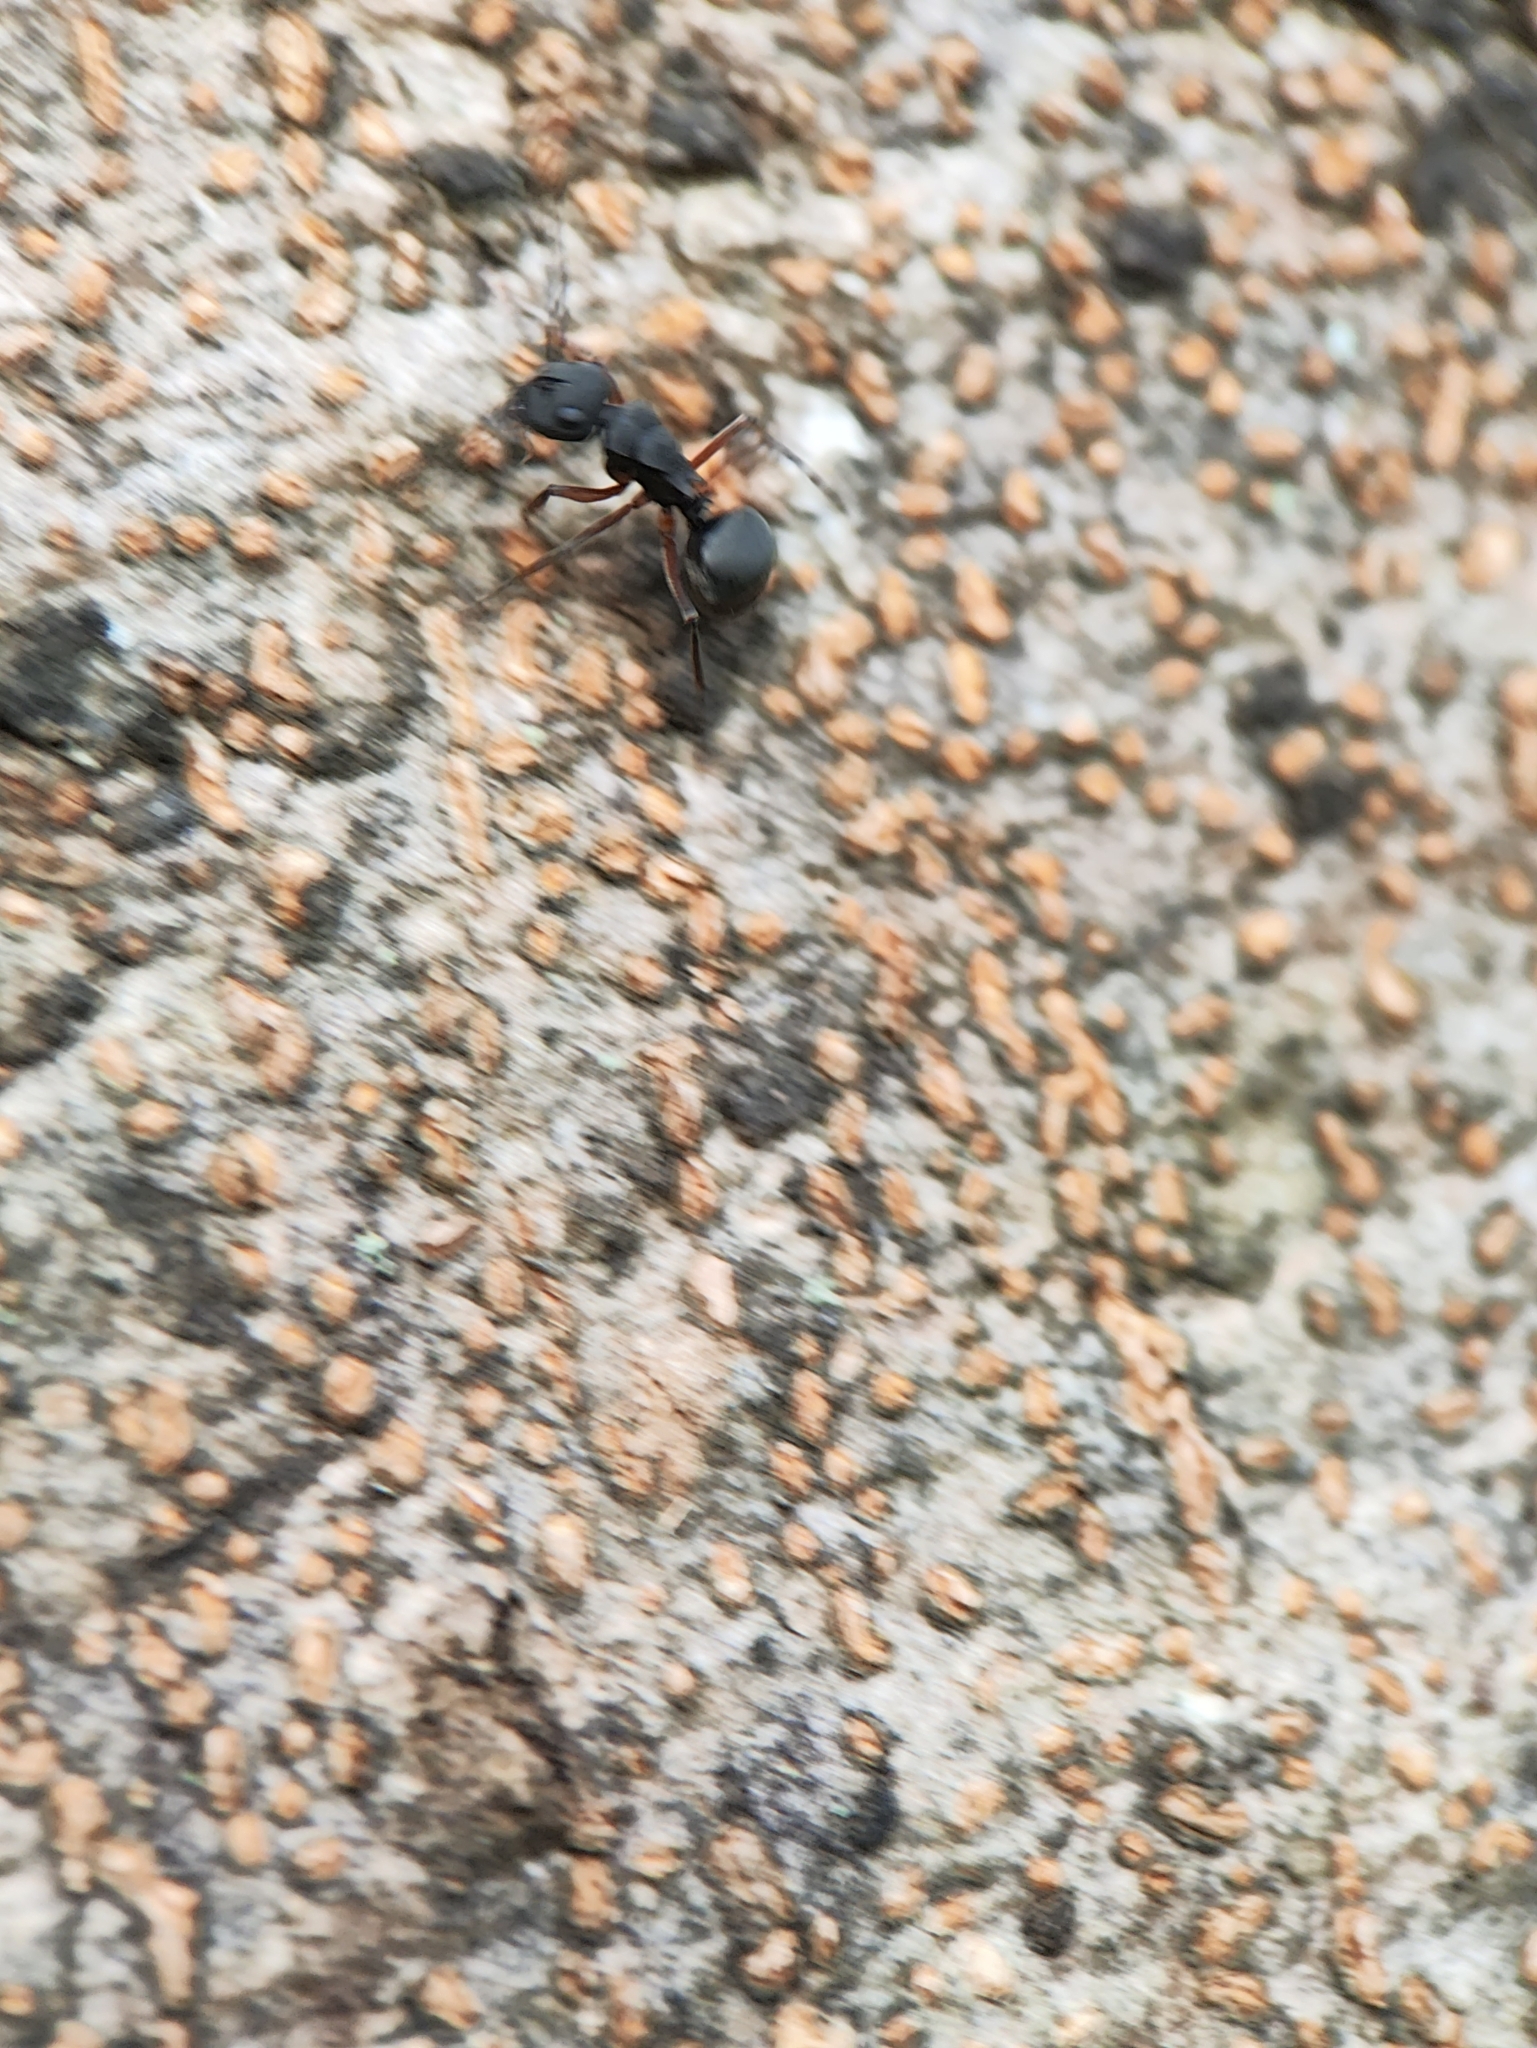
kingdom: Animalia
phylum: Arthropoda
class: Insecta
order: Hymenoptera
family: Formicidae
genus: Polyrhachis
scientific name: Polyrhachis exercita
